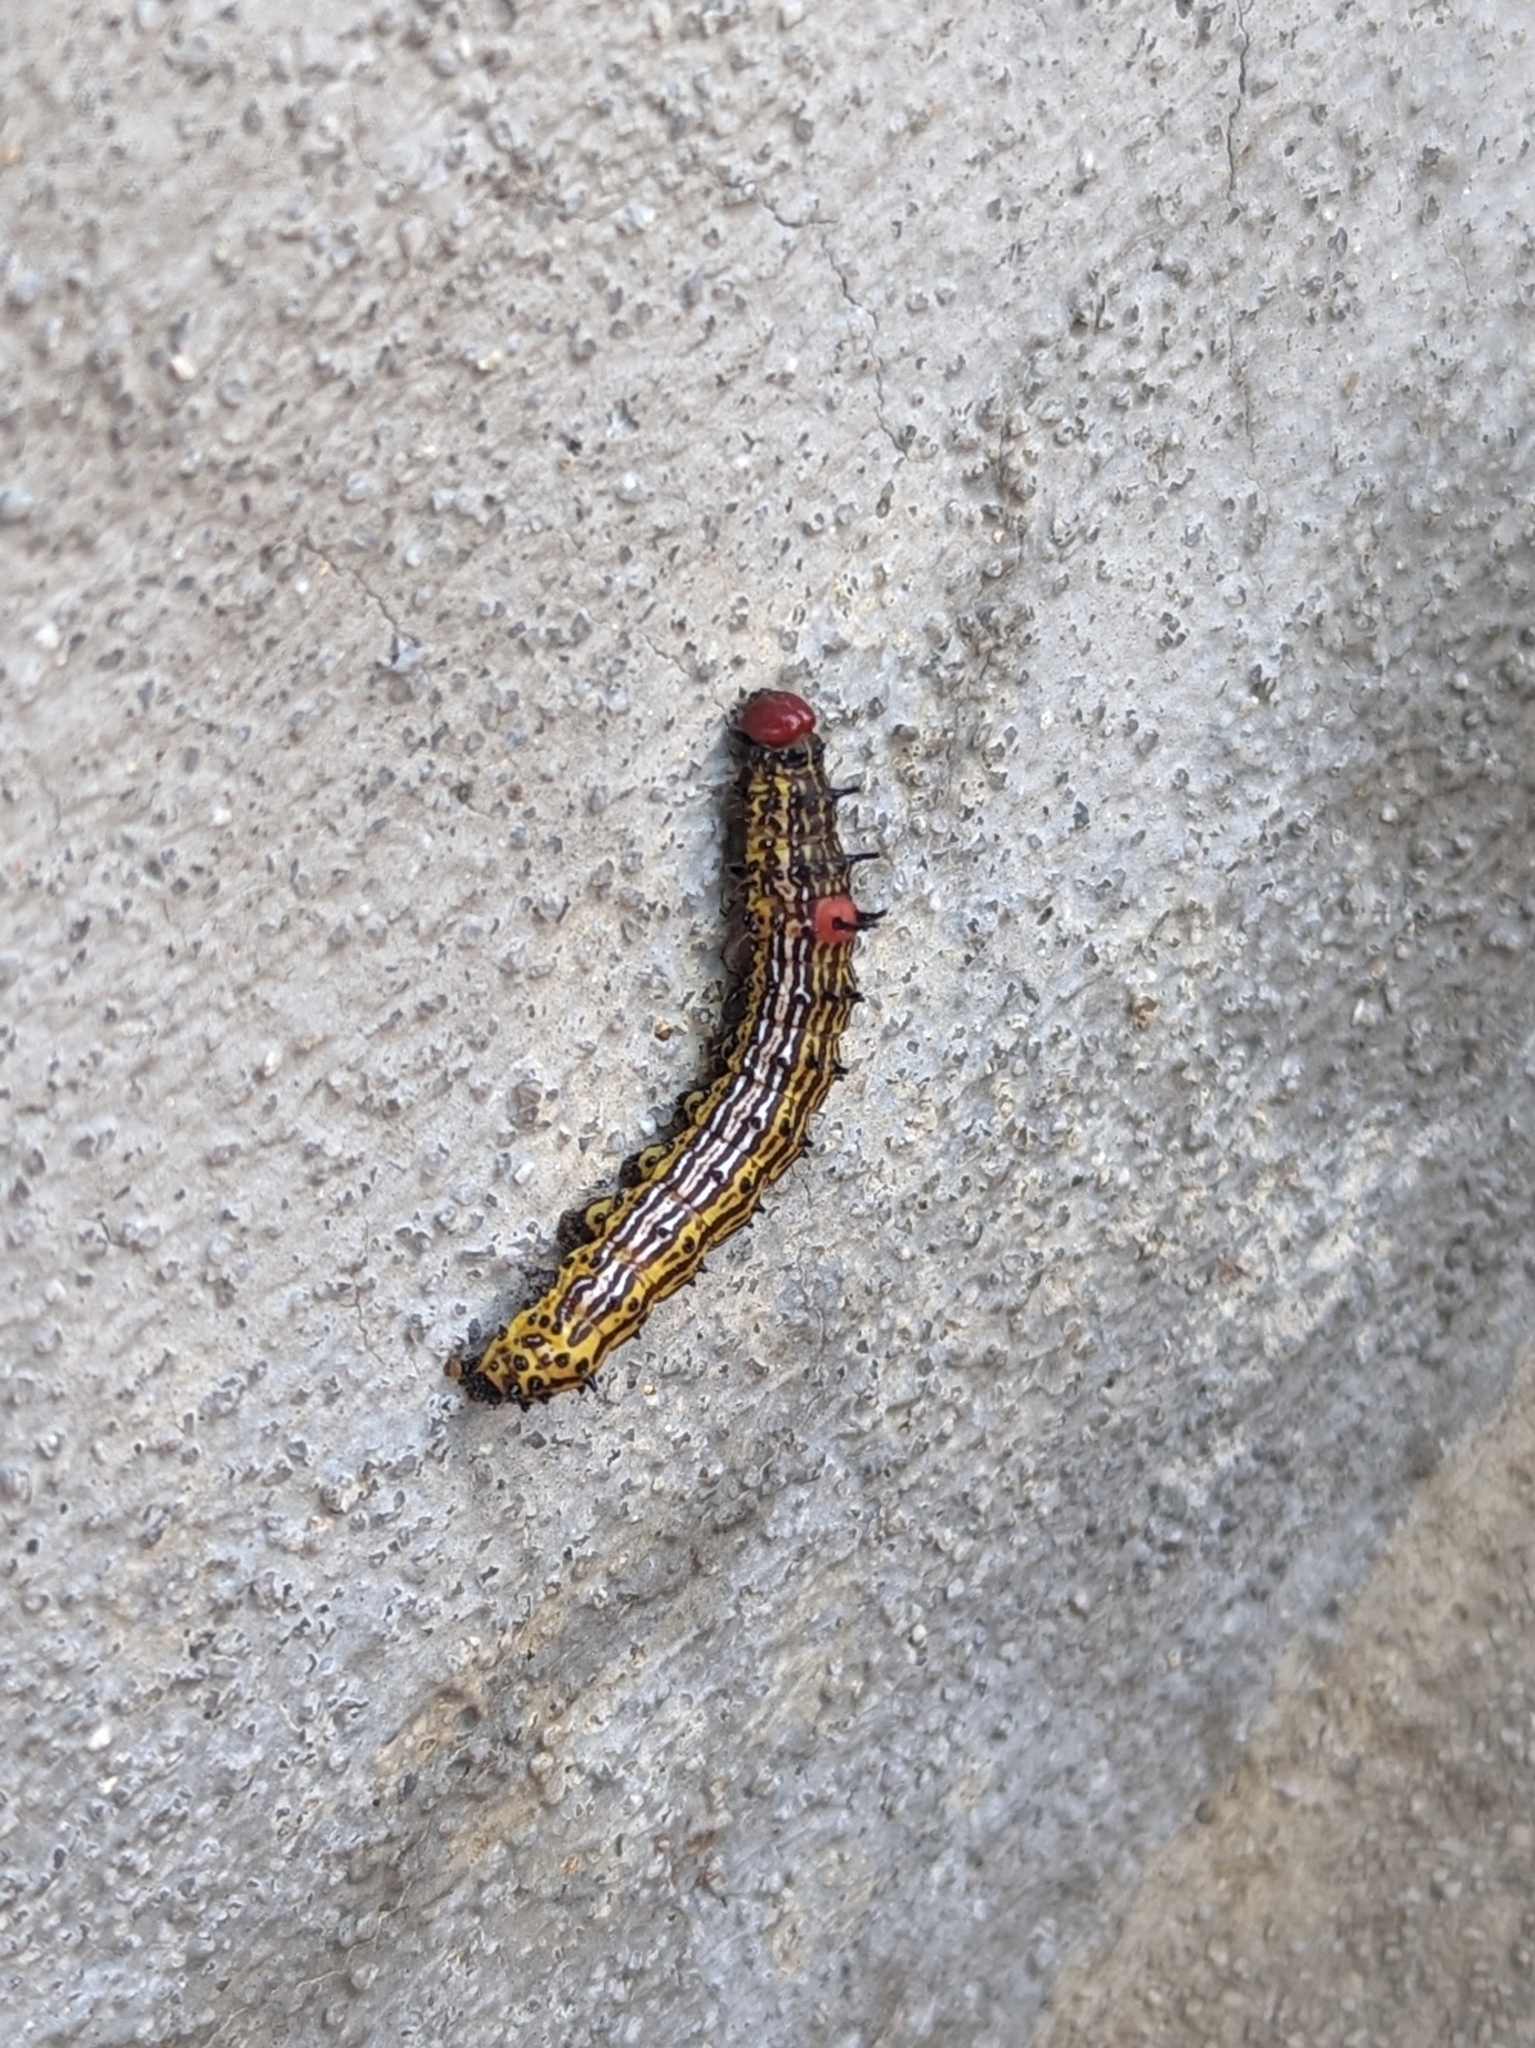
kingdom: Animalia
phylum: Arthropoda
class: Insecta
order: Lepidoptera
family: Notodontidae
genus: Schizura
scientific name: Schizura
